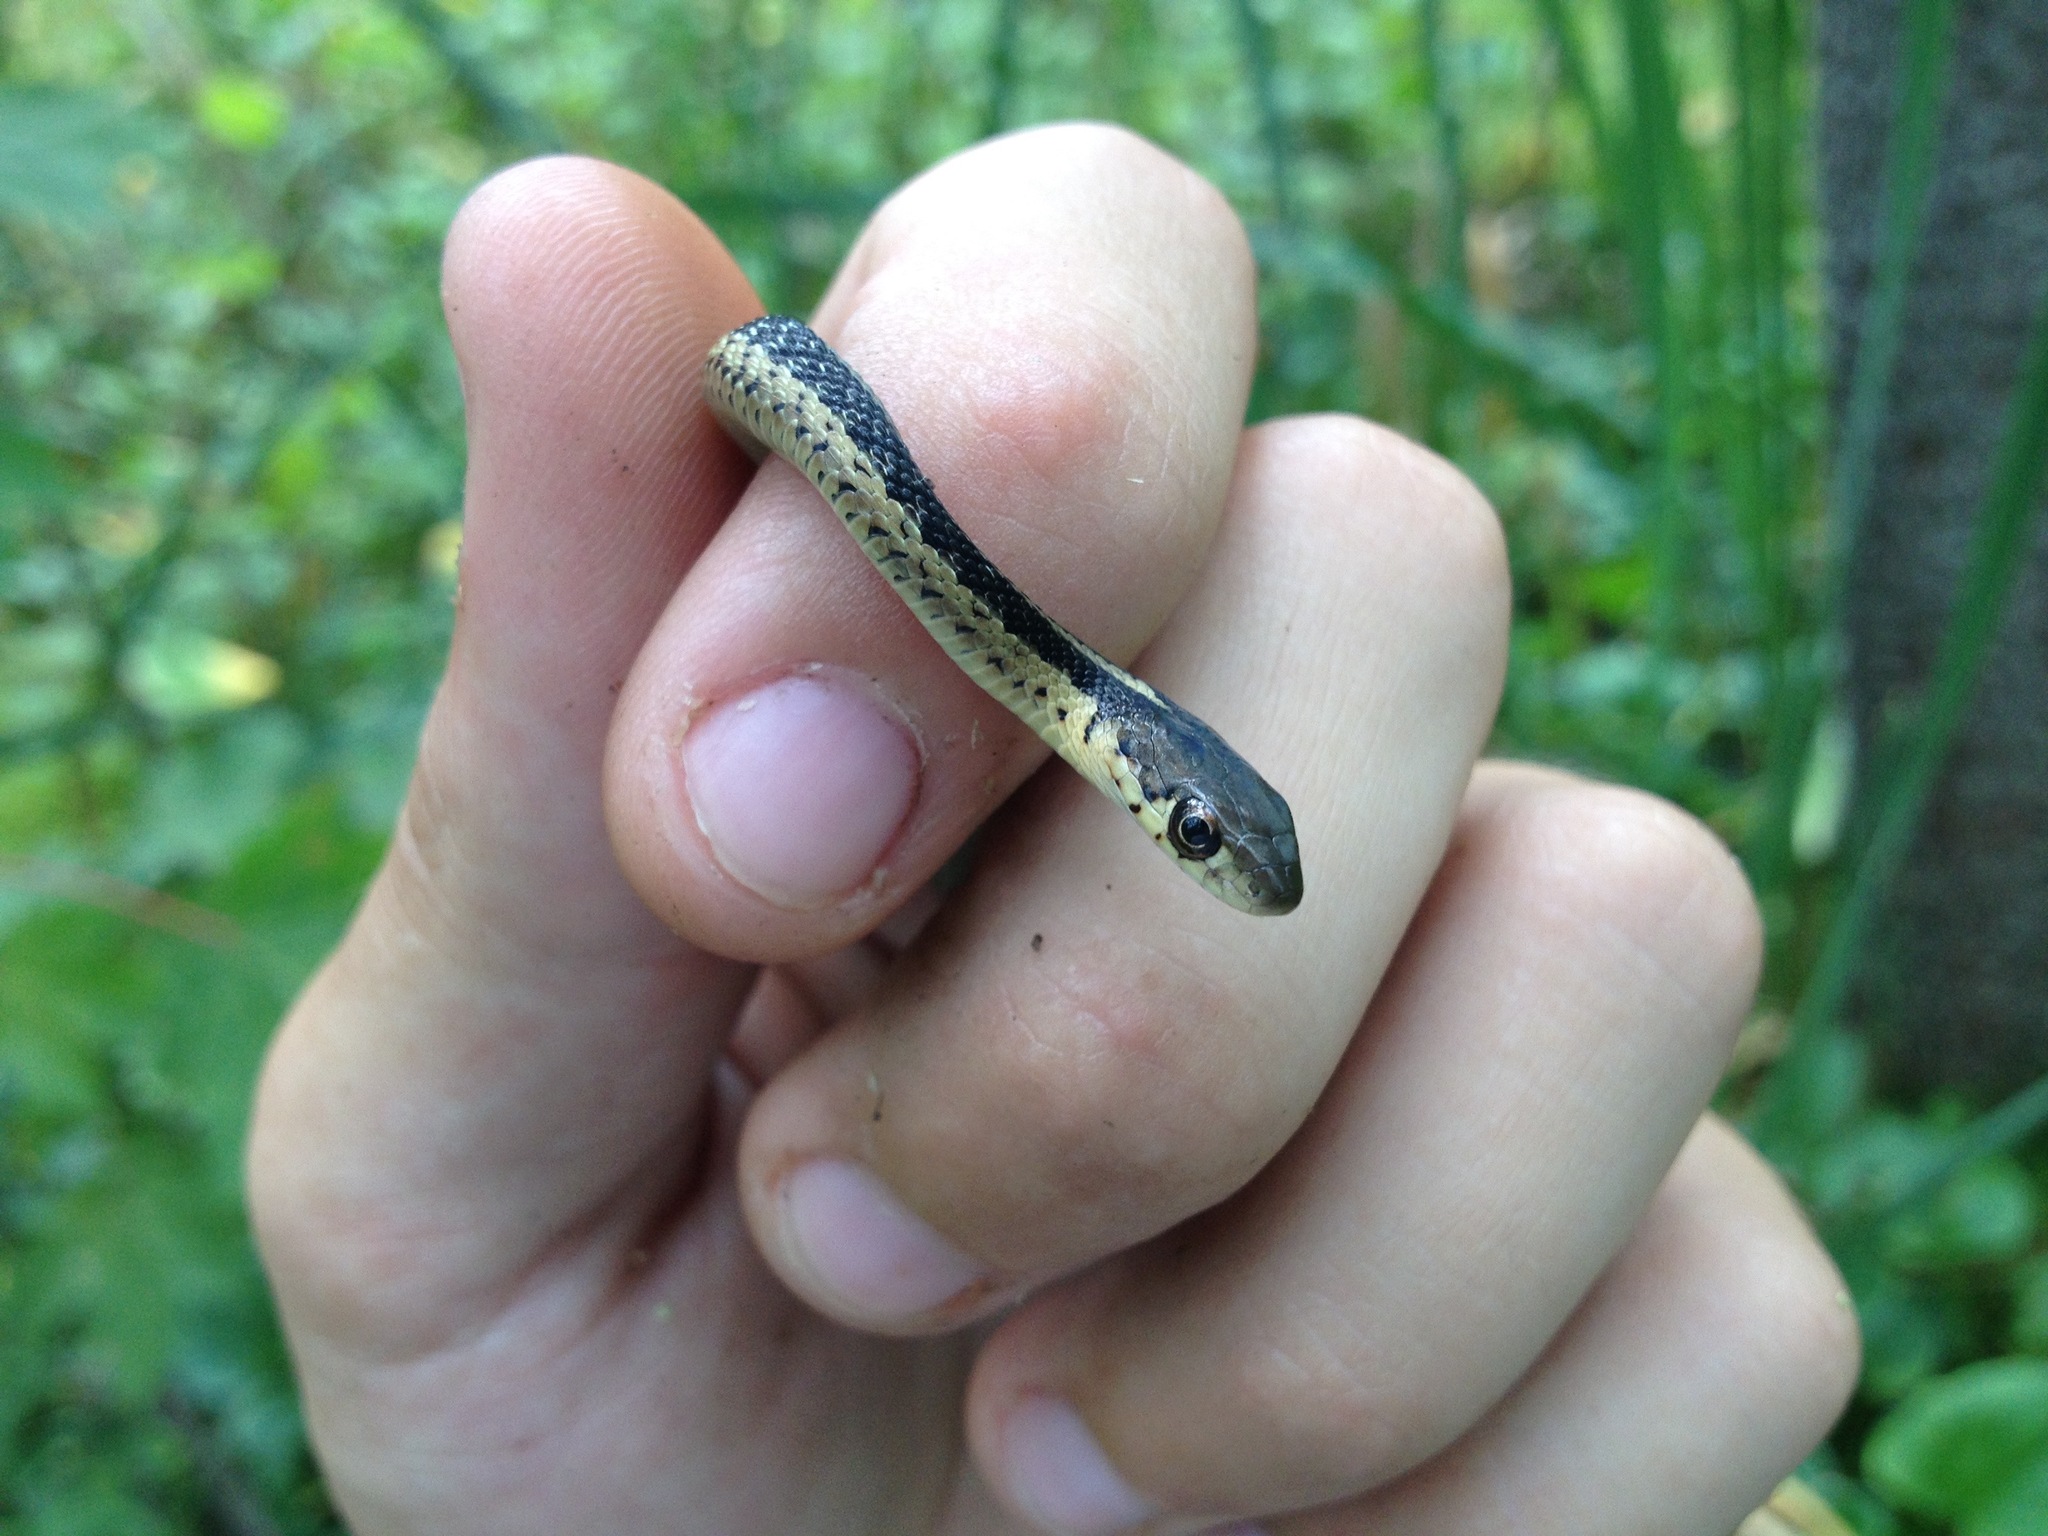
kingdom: Animalia
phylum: Chordata
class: Squamata
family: Colubridae
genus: Thamnophis
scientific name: Thamnophis sirtalis
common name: Common garter snake
